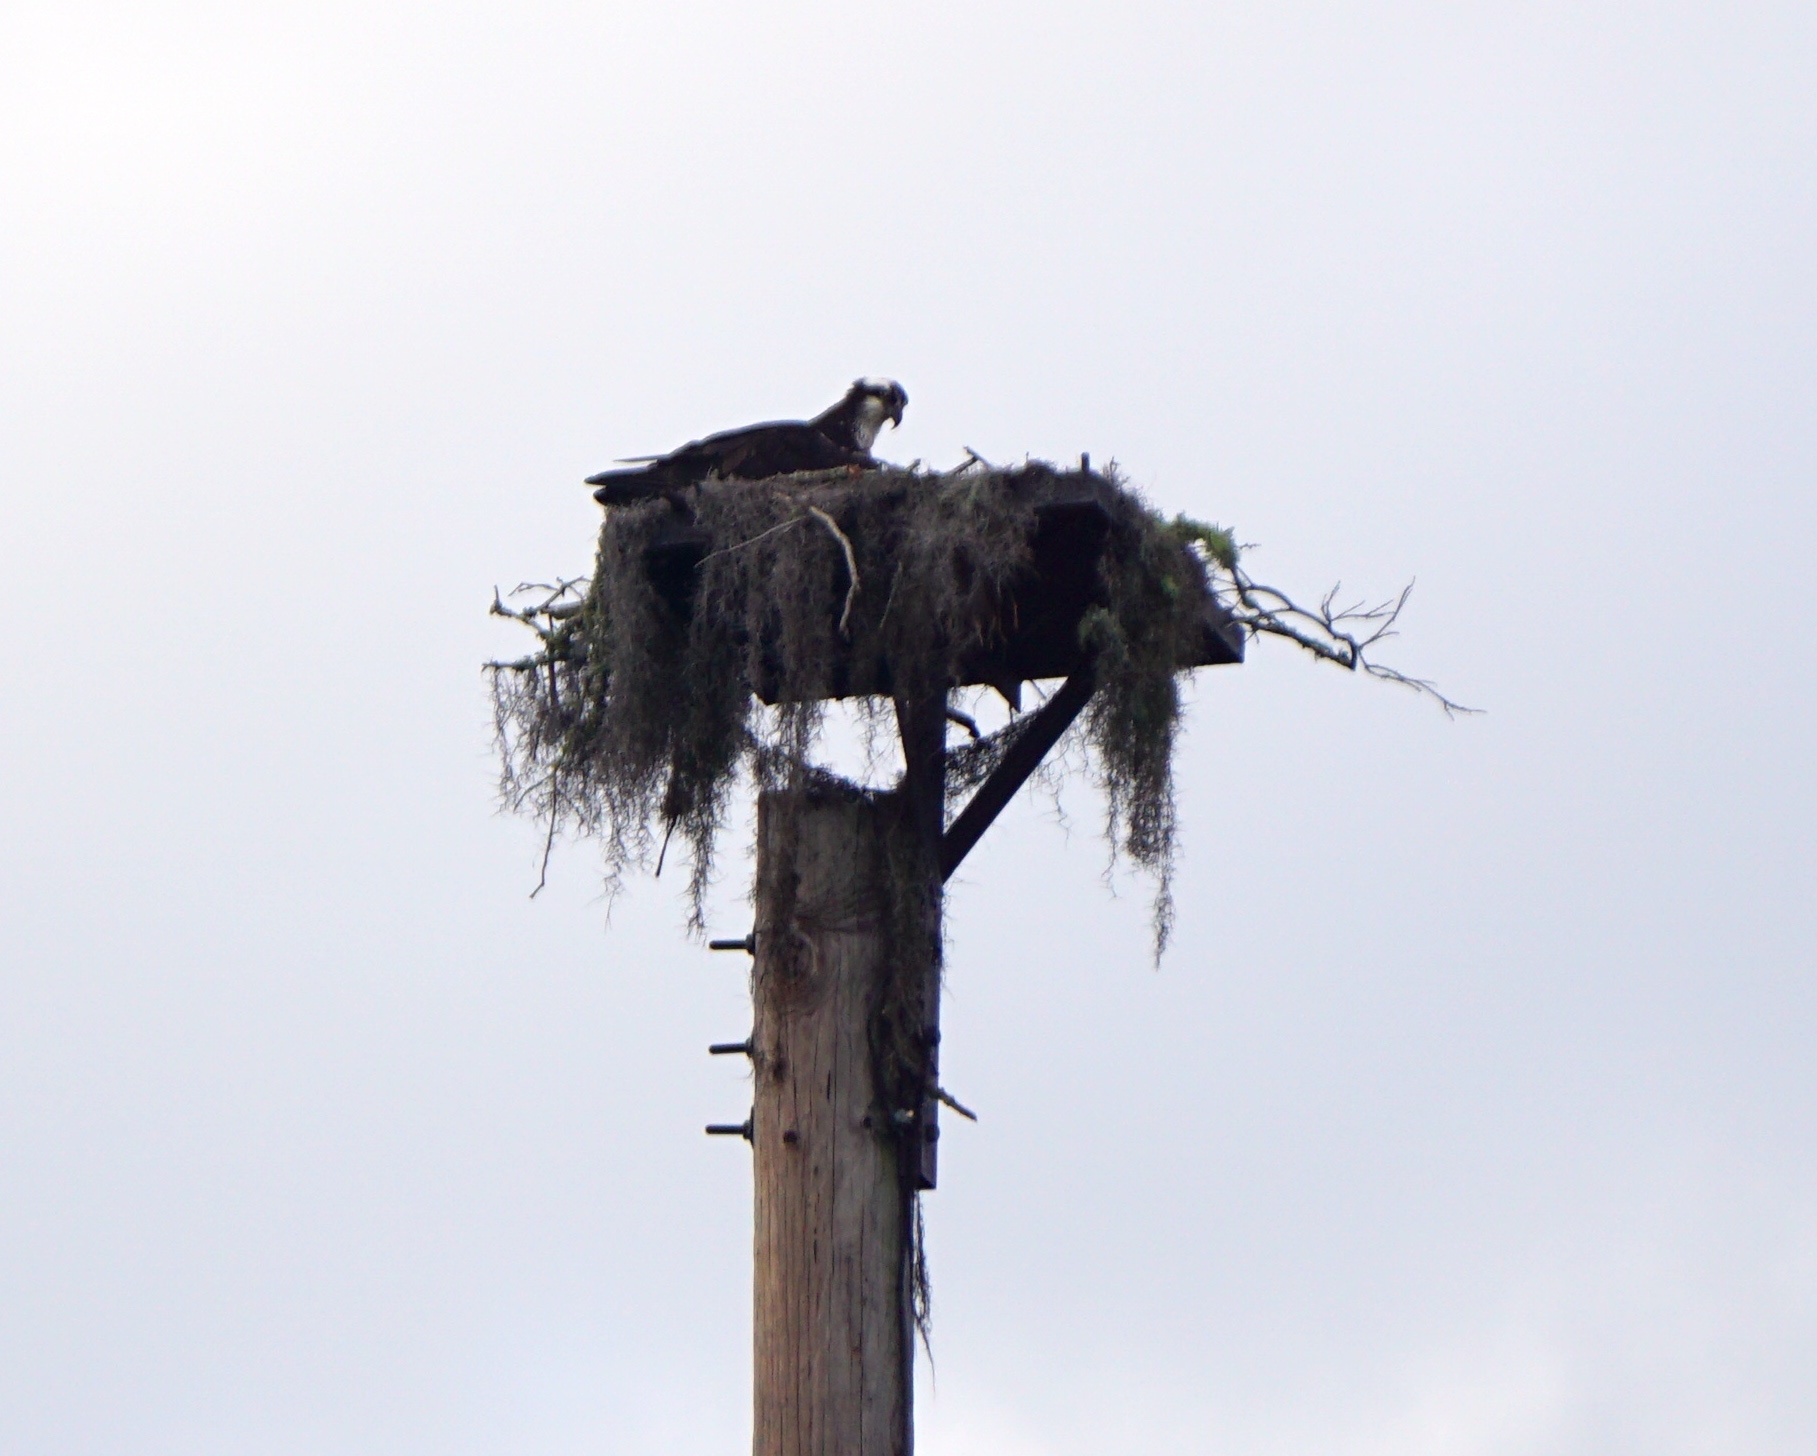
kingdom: Animalia
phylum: Chordata
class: Aves
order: Accipitriformes
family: Pandionidae
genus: Pandion
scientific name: Pandion haliaetus
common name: Osprey
